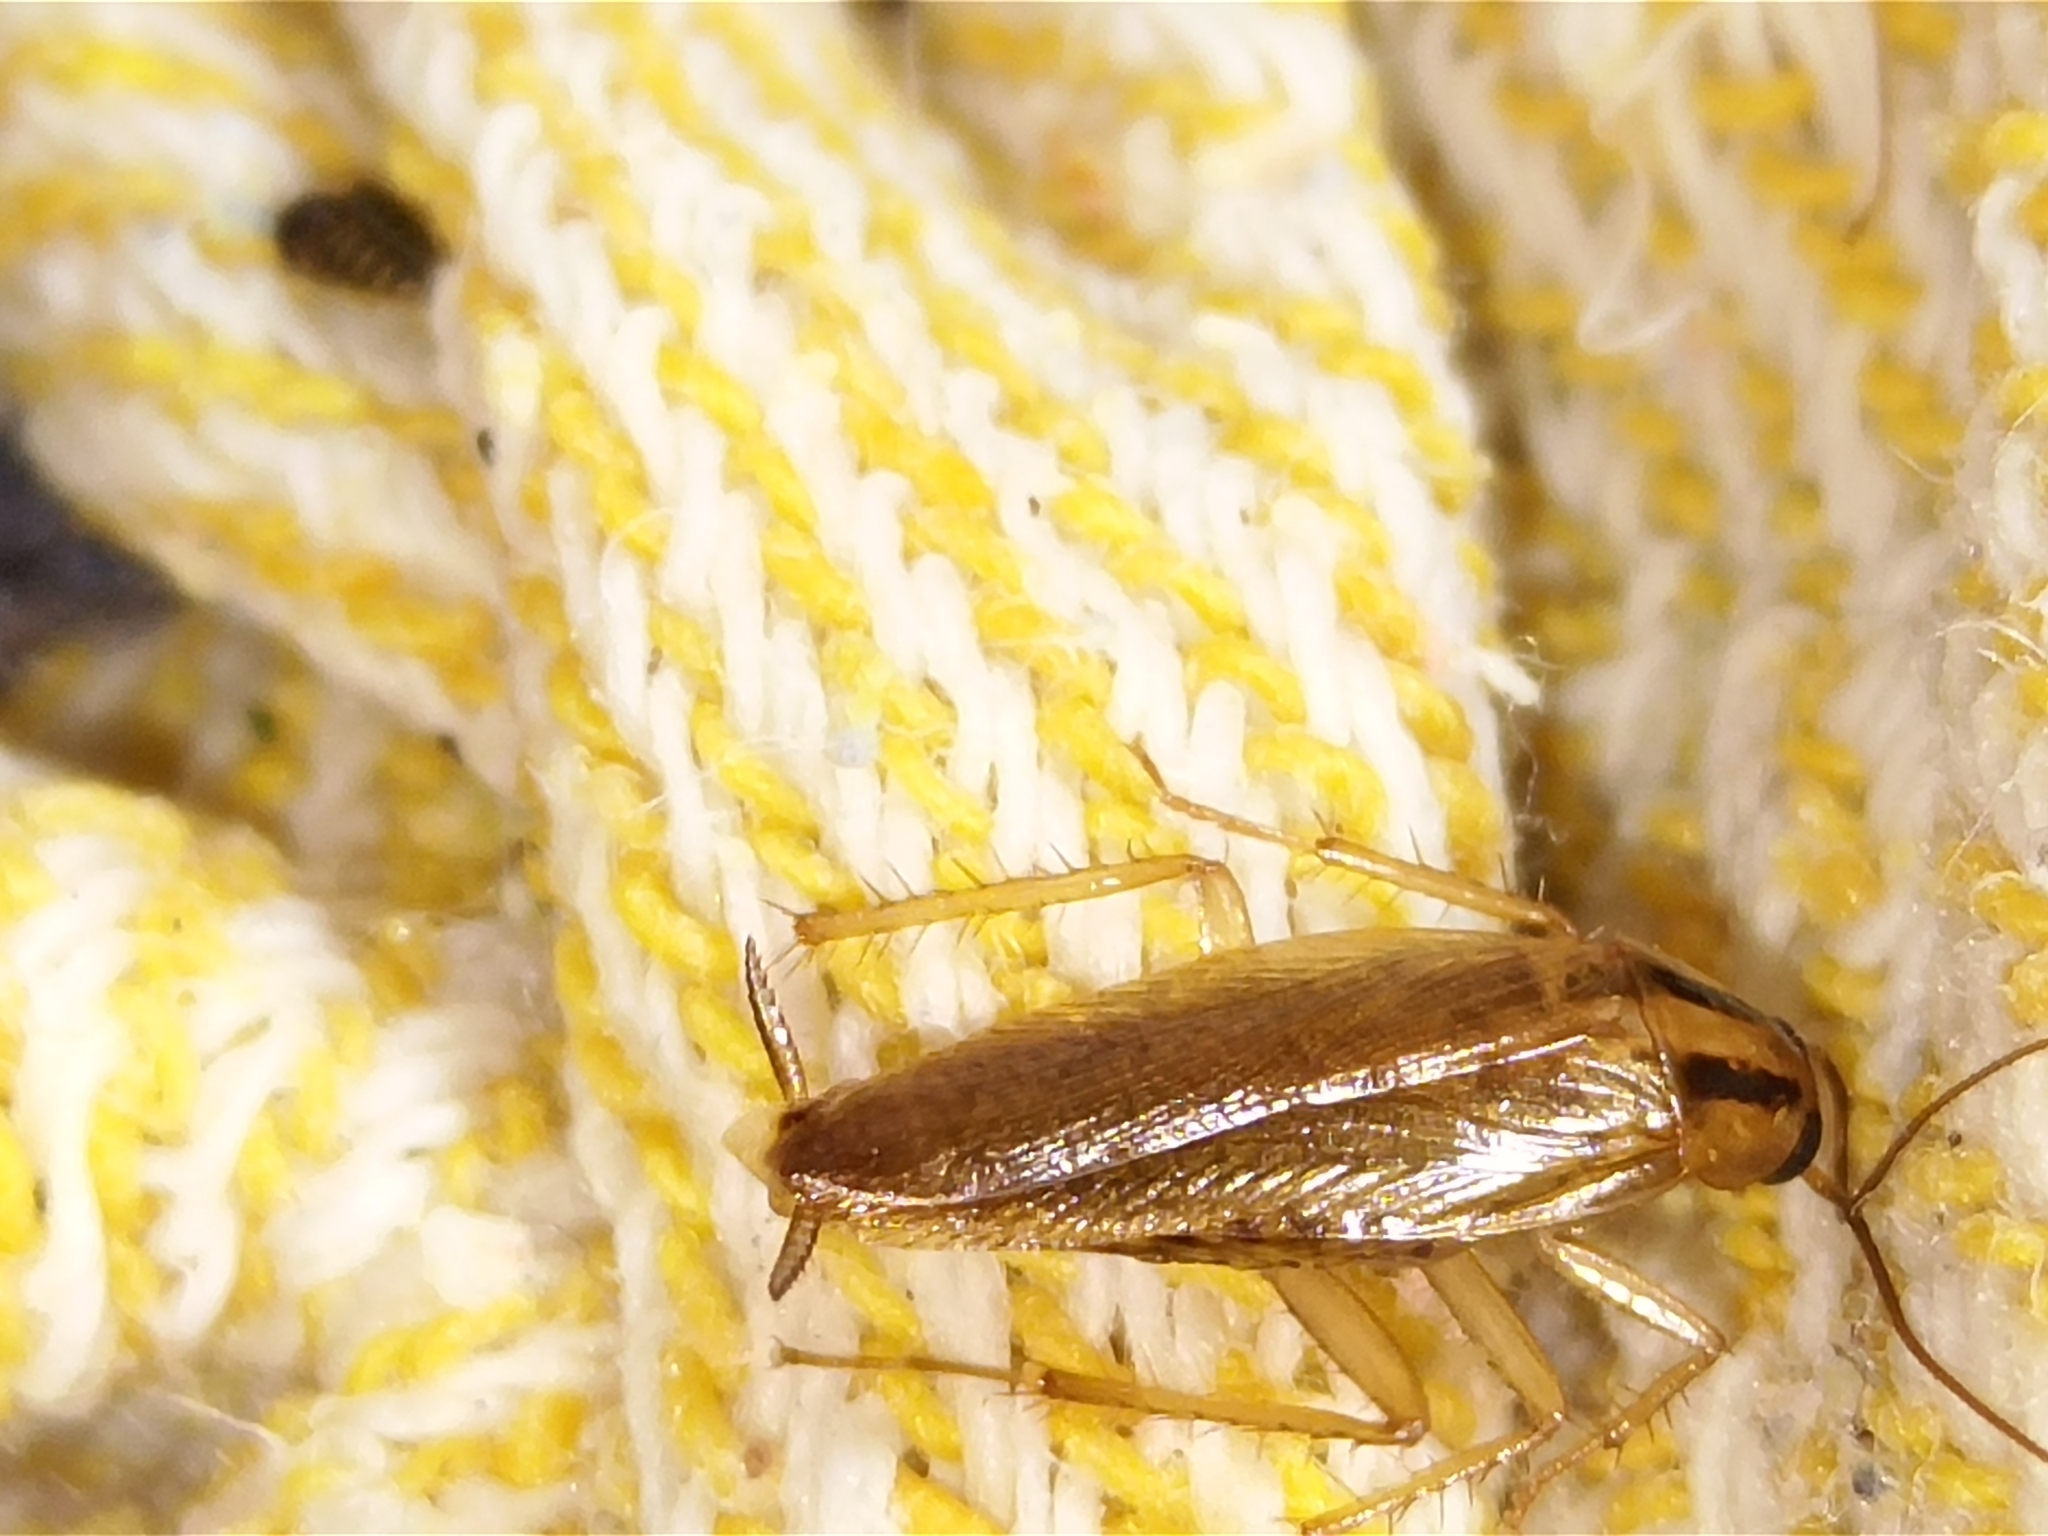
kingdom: Animalia
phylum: Arthropoda
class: Insecta
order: Blattodea
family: Ectobiidae
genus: Blattella
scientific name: Blattella germanica
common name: German cockroach
